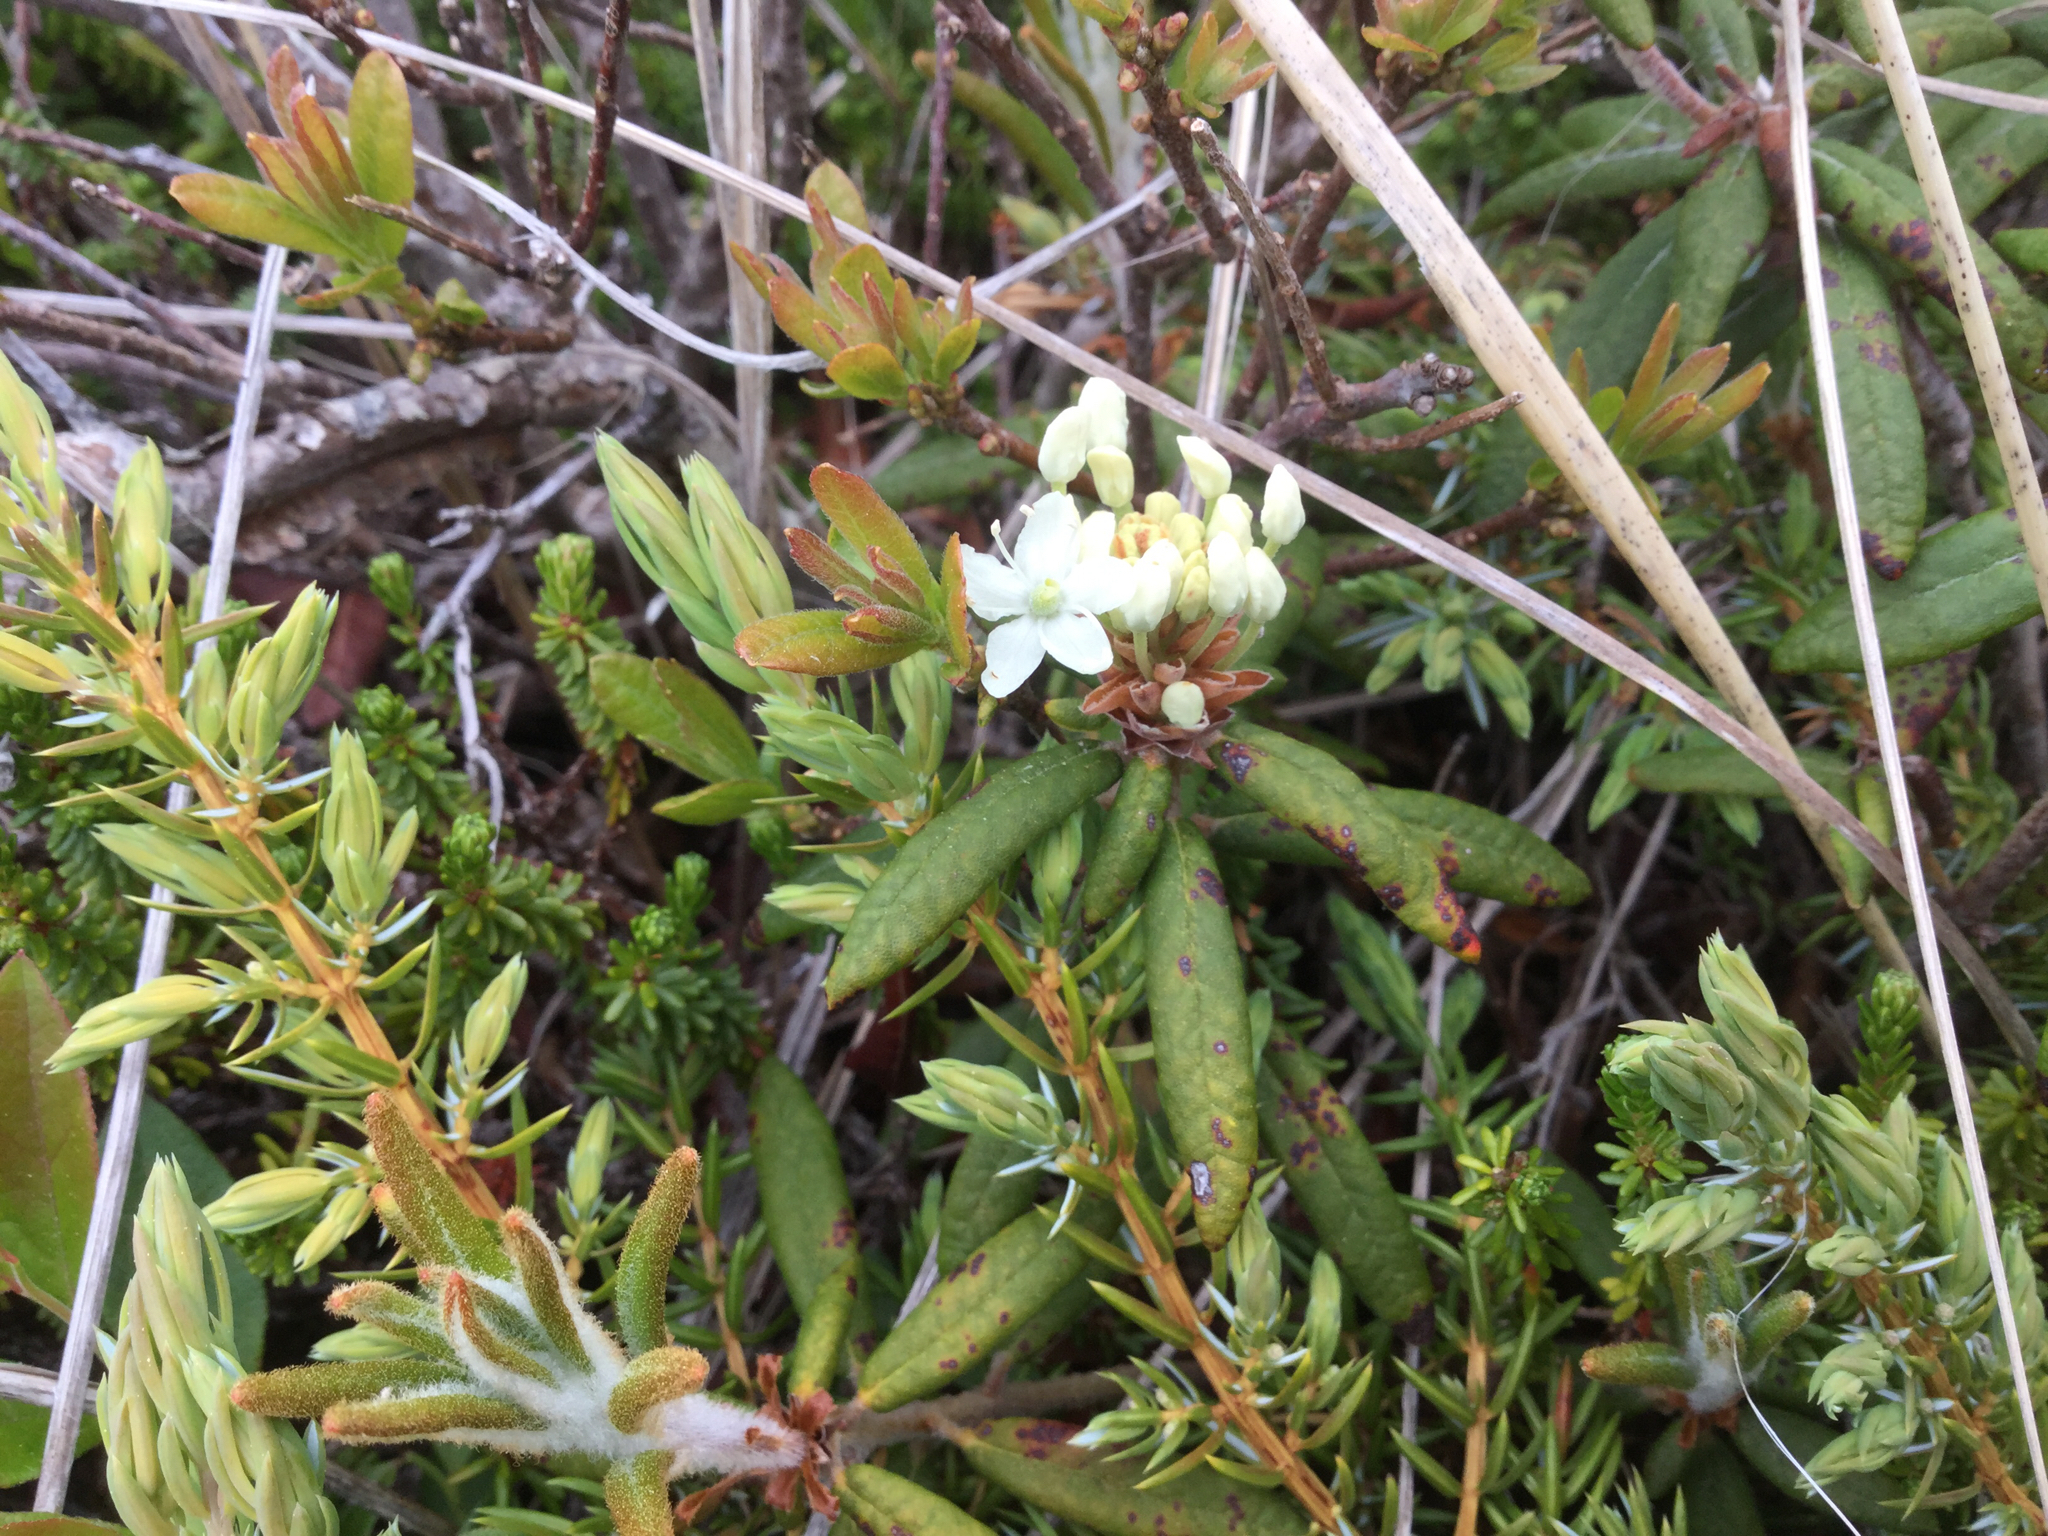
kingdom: Plantae
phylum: Tracheophyta
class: Magnoliopsida
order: Ericales
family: Ericaceae
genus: Rhododendron
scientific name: Rhododendron groenlandicum
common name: Bog labrador tea
